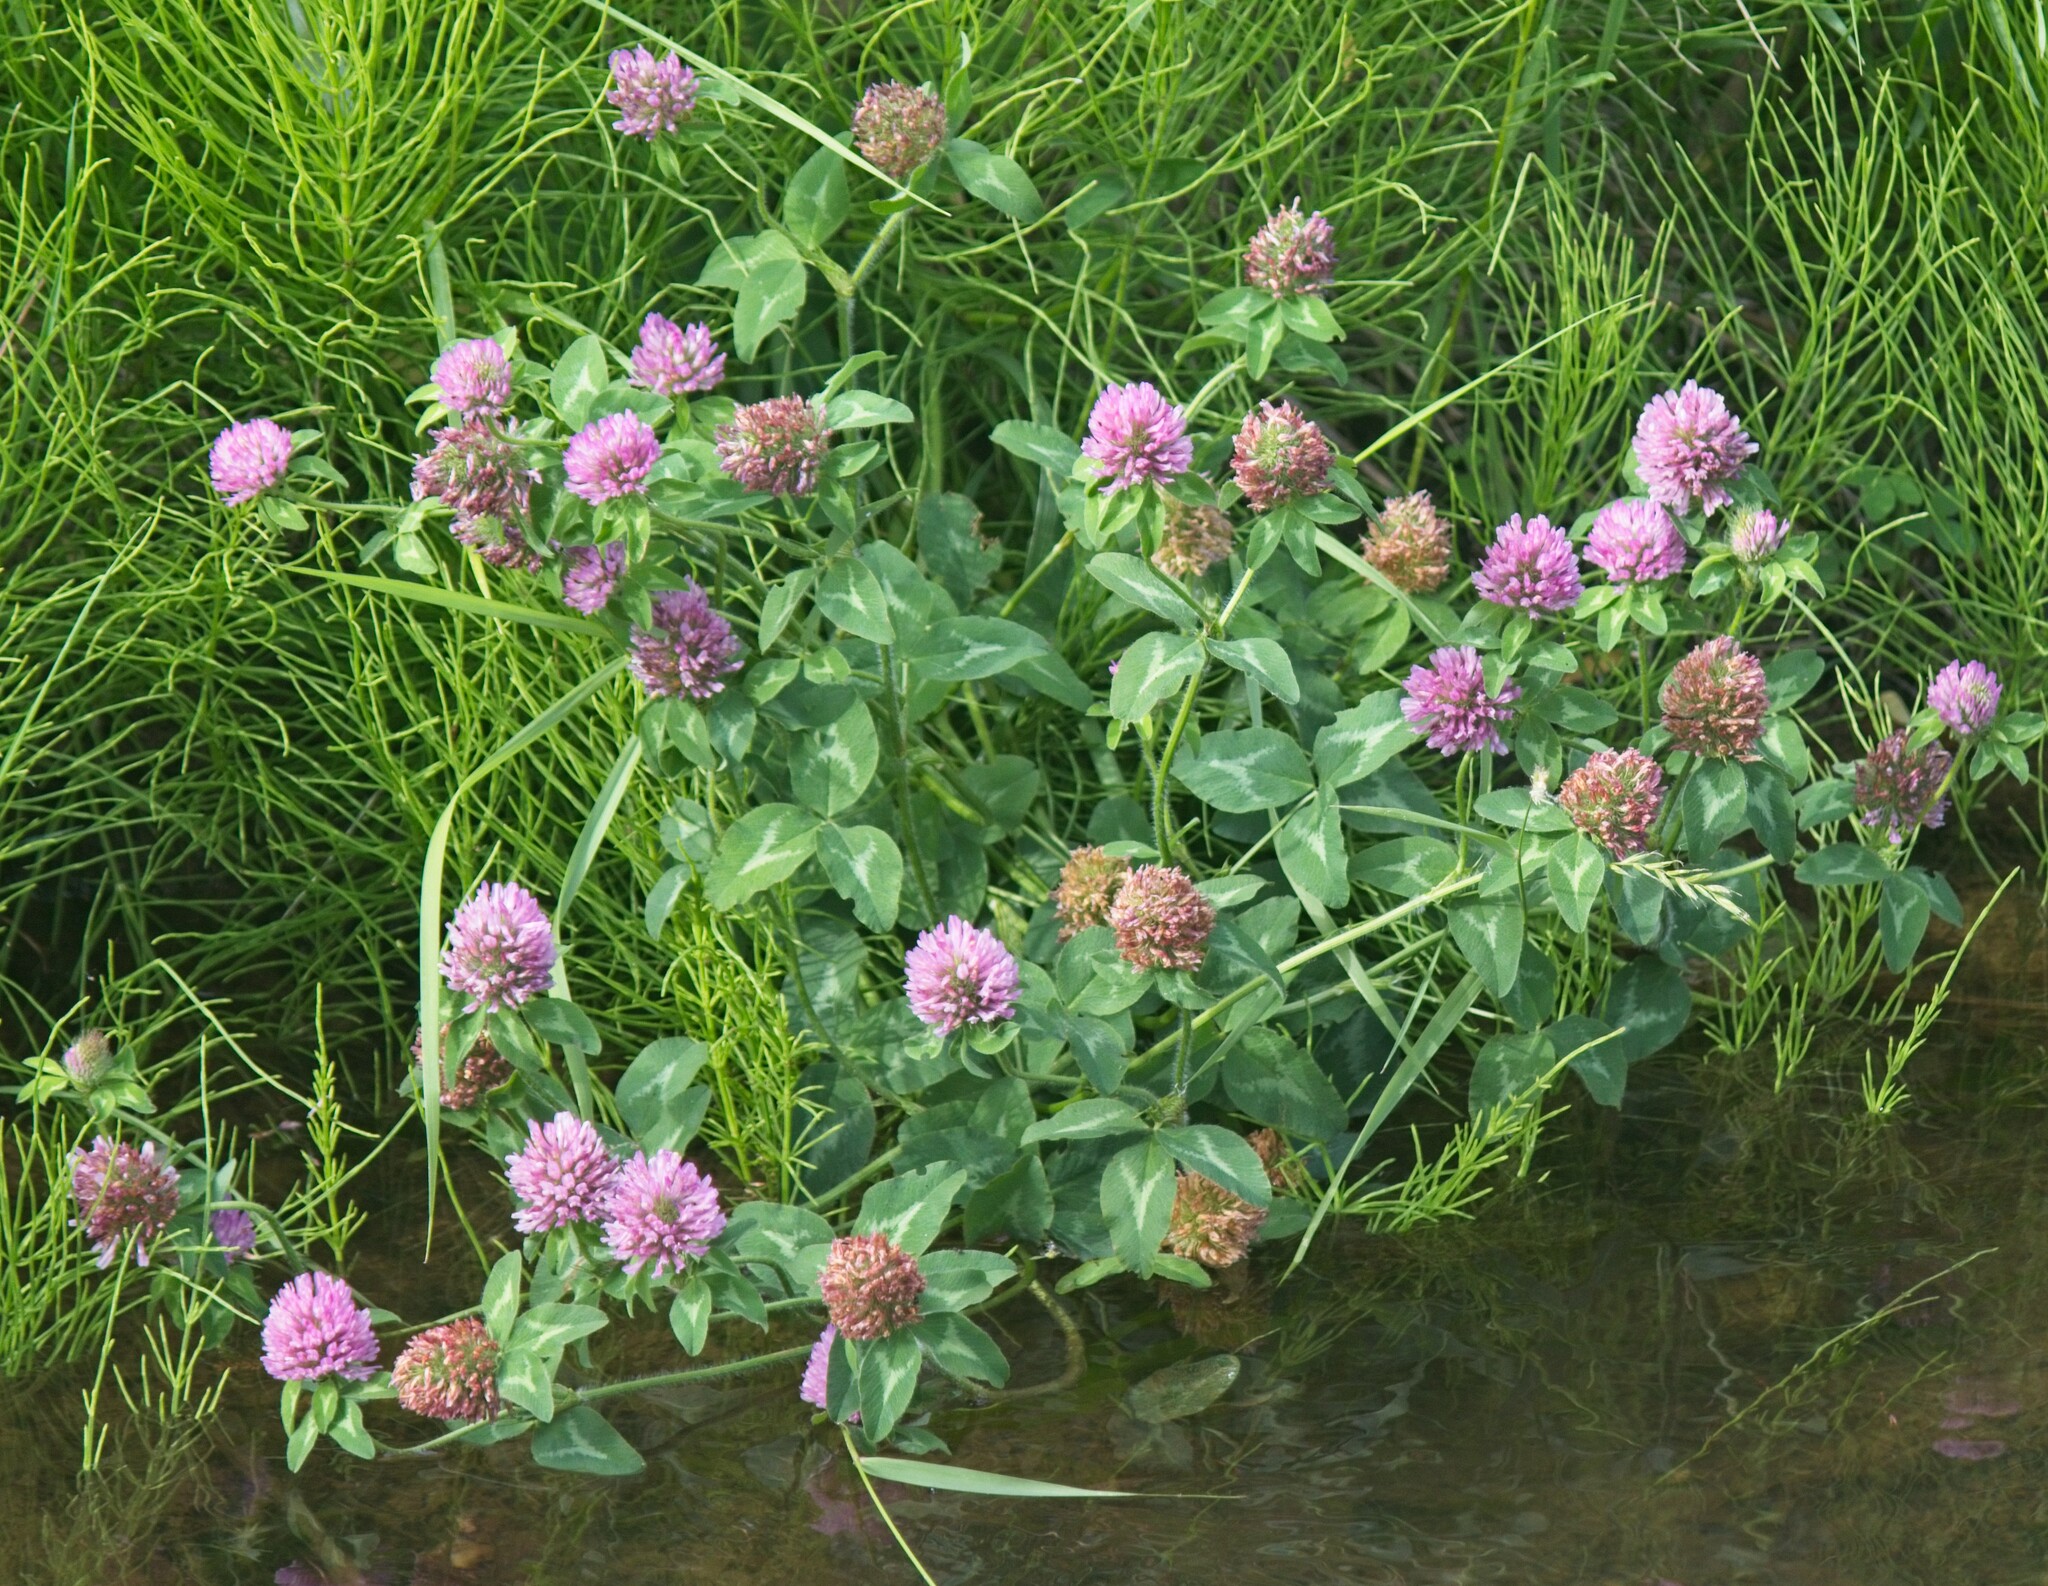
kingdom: Plantae
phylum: Tracheophyta
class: Magnoliopsida
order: Fabales
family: Fabaceae
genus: Trifolium
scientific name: Trifolium pratense
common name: Red clover
